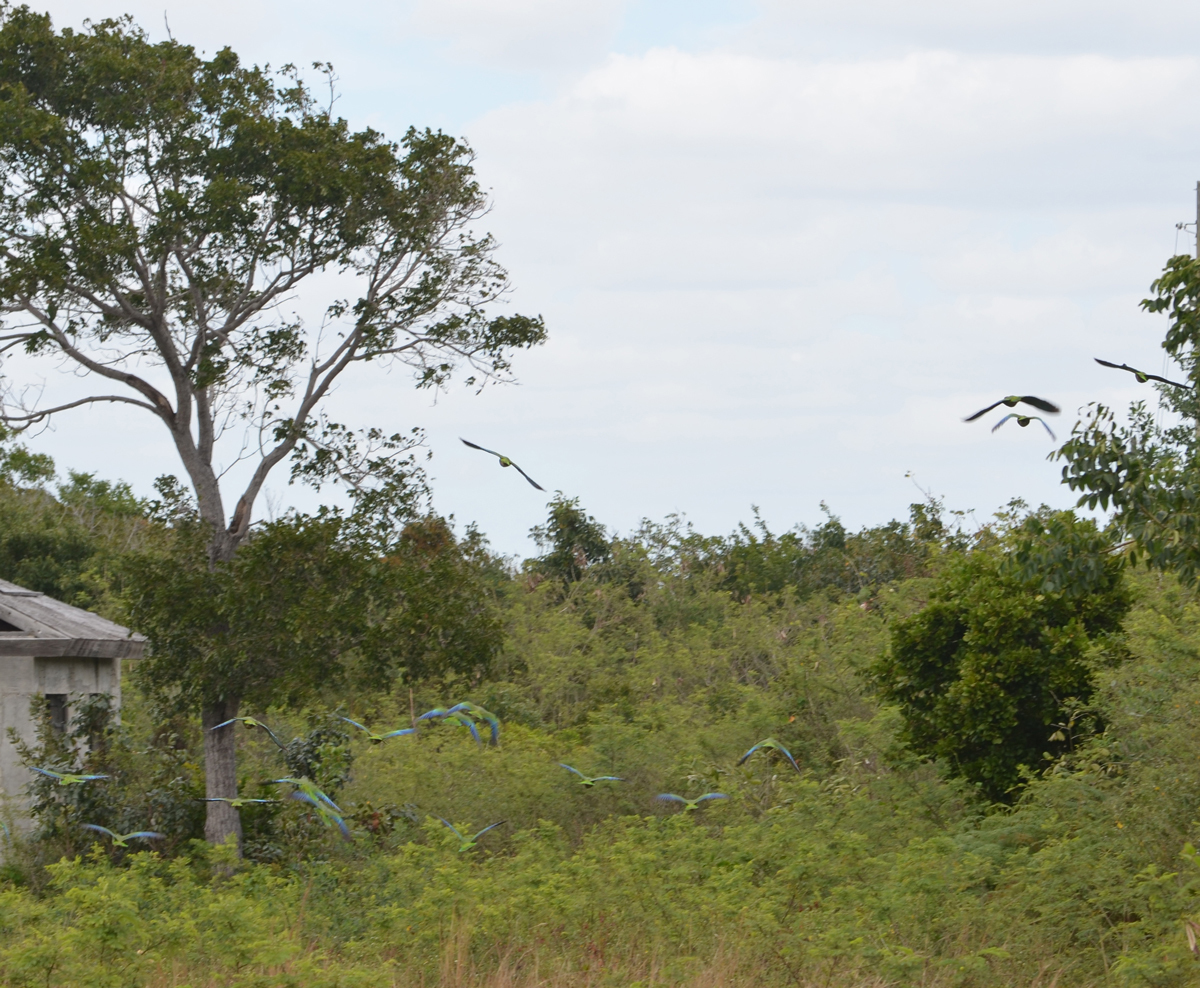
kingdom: Animalia
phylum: Chordata
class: Aves
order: Psittaciformes
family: Psittacidae
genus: Amazona
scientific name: Amazona leucocephala
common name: Cuban amazon
